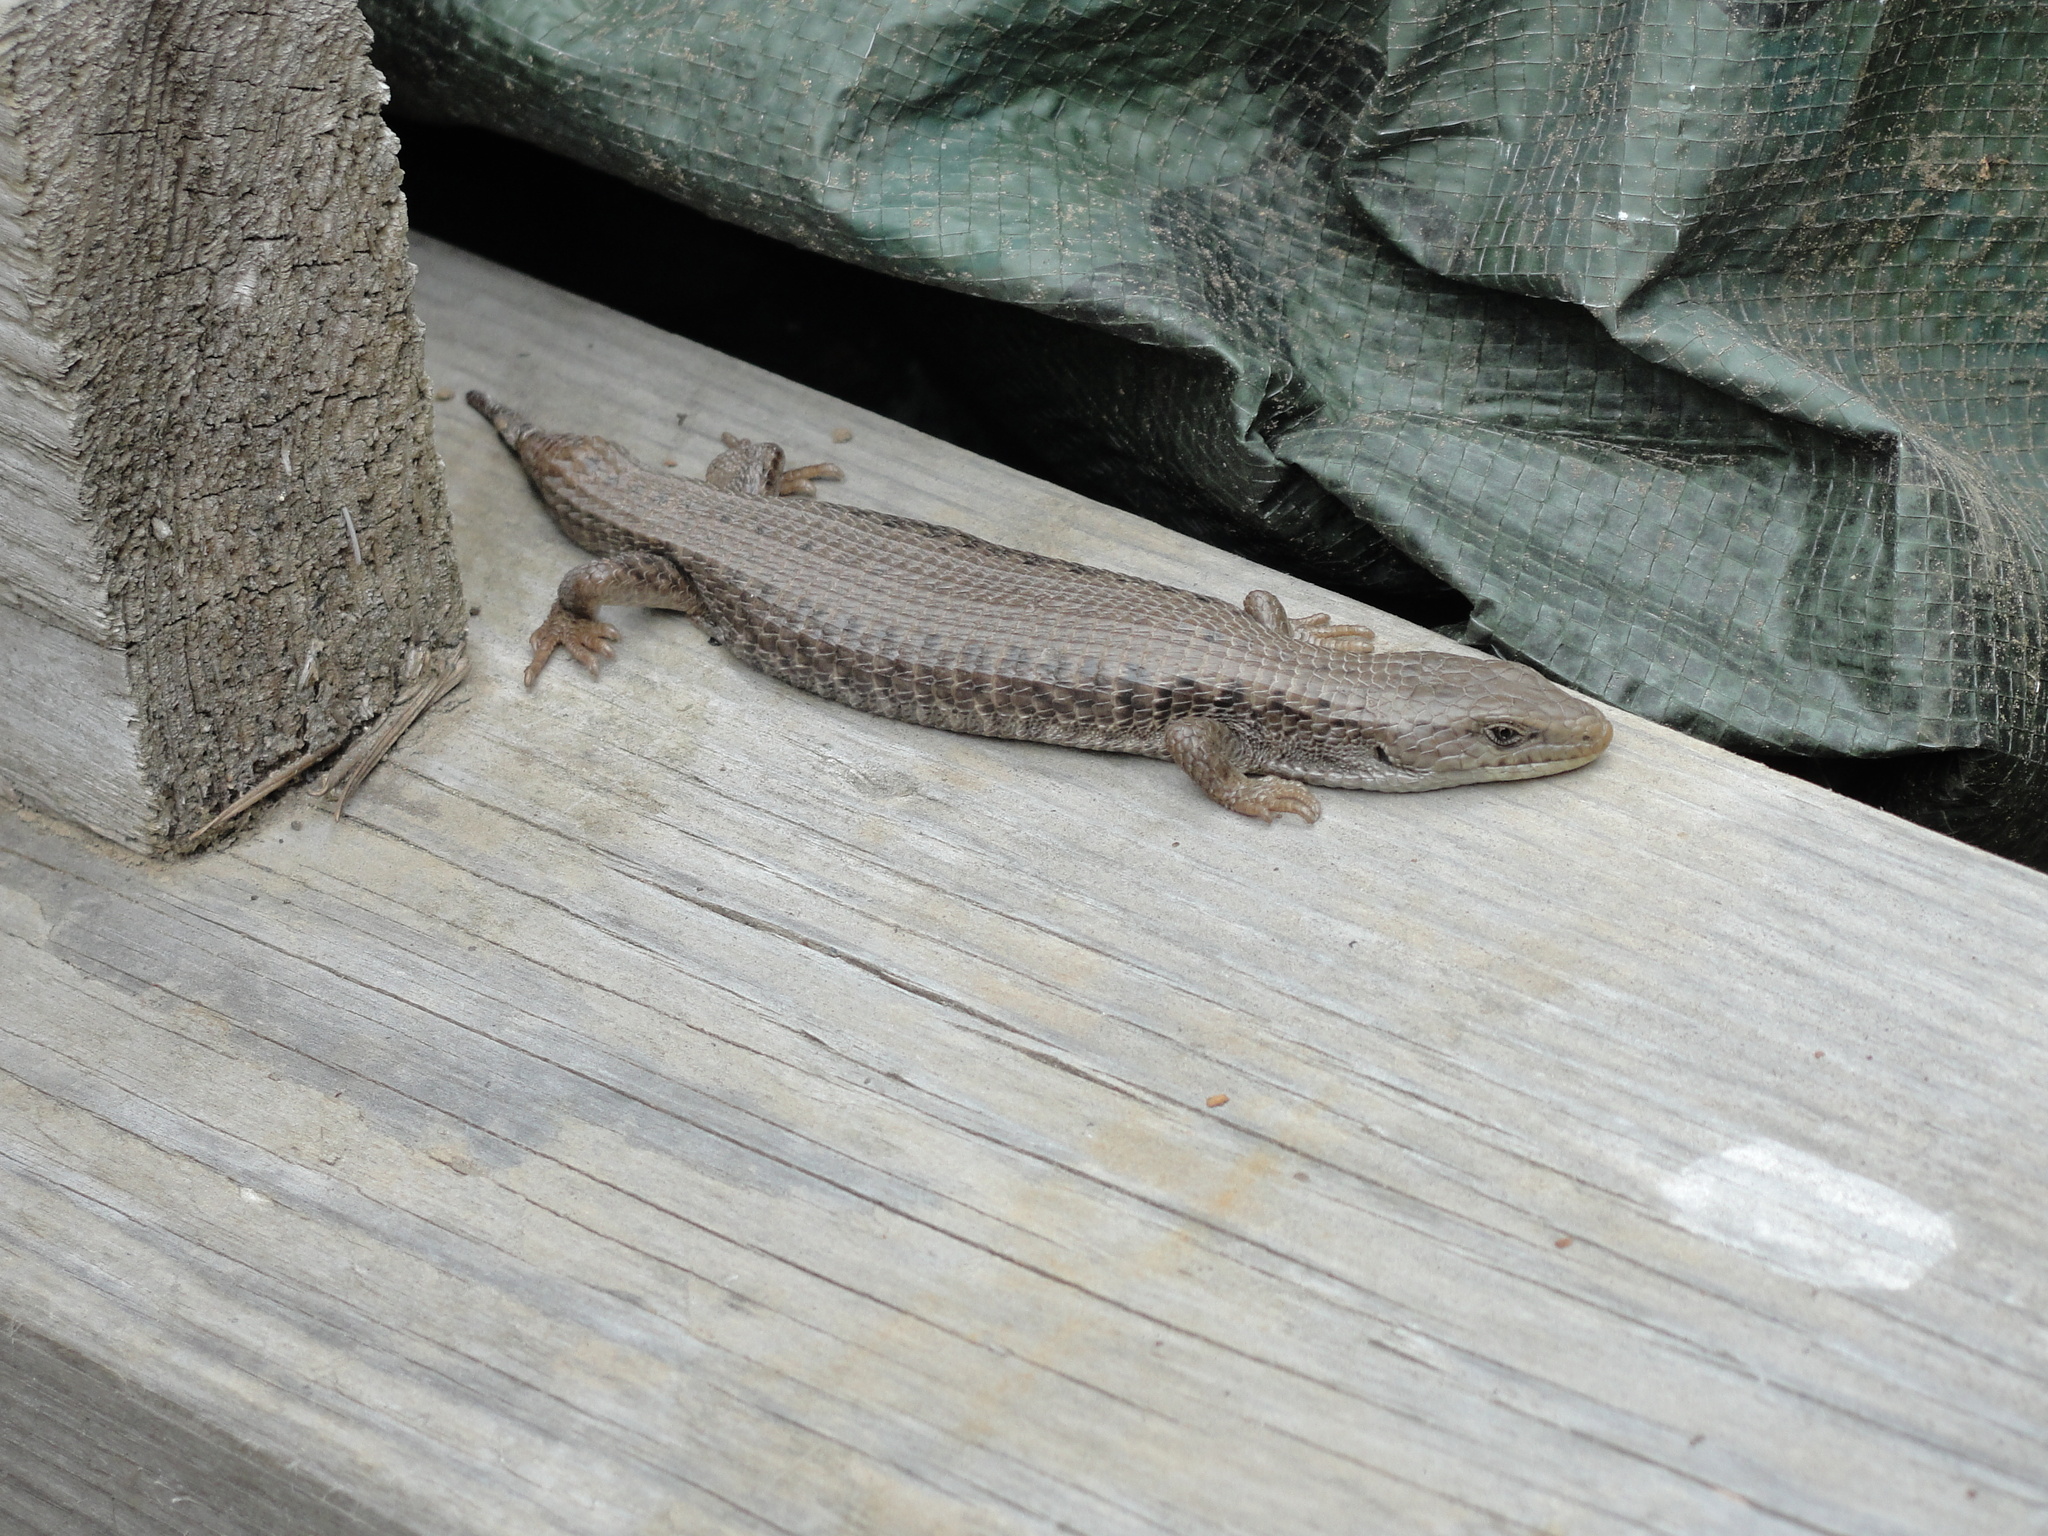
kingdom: Animalia
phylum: Chordata
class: Squamata
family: Anguidae
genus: Elgaria
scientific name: Elgaria coerulea
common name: Northern alligator lizard
